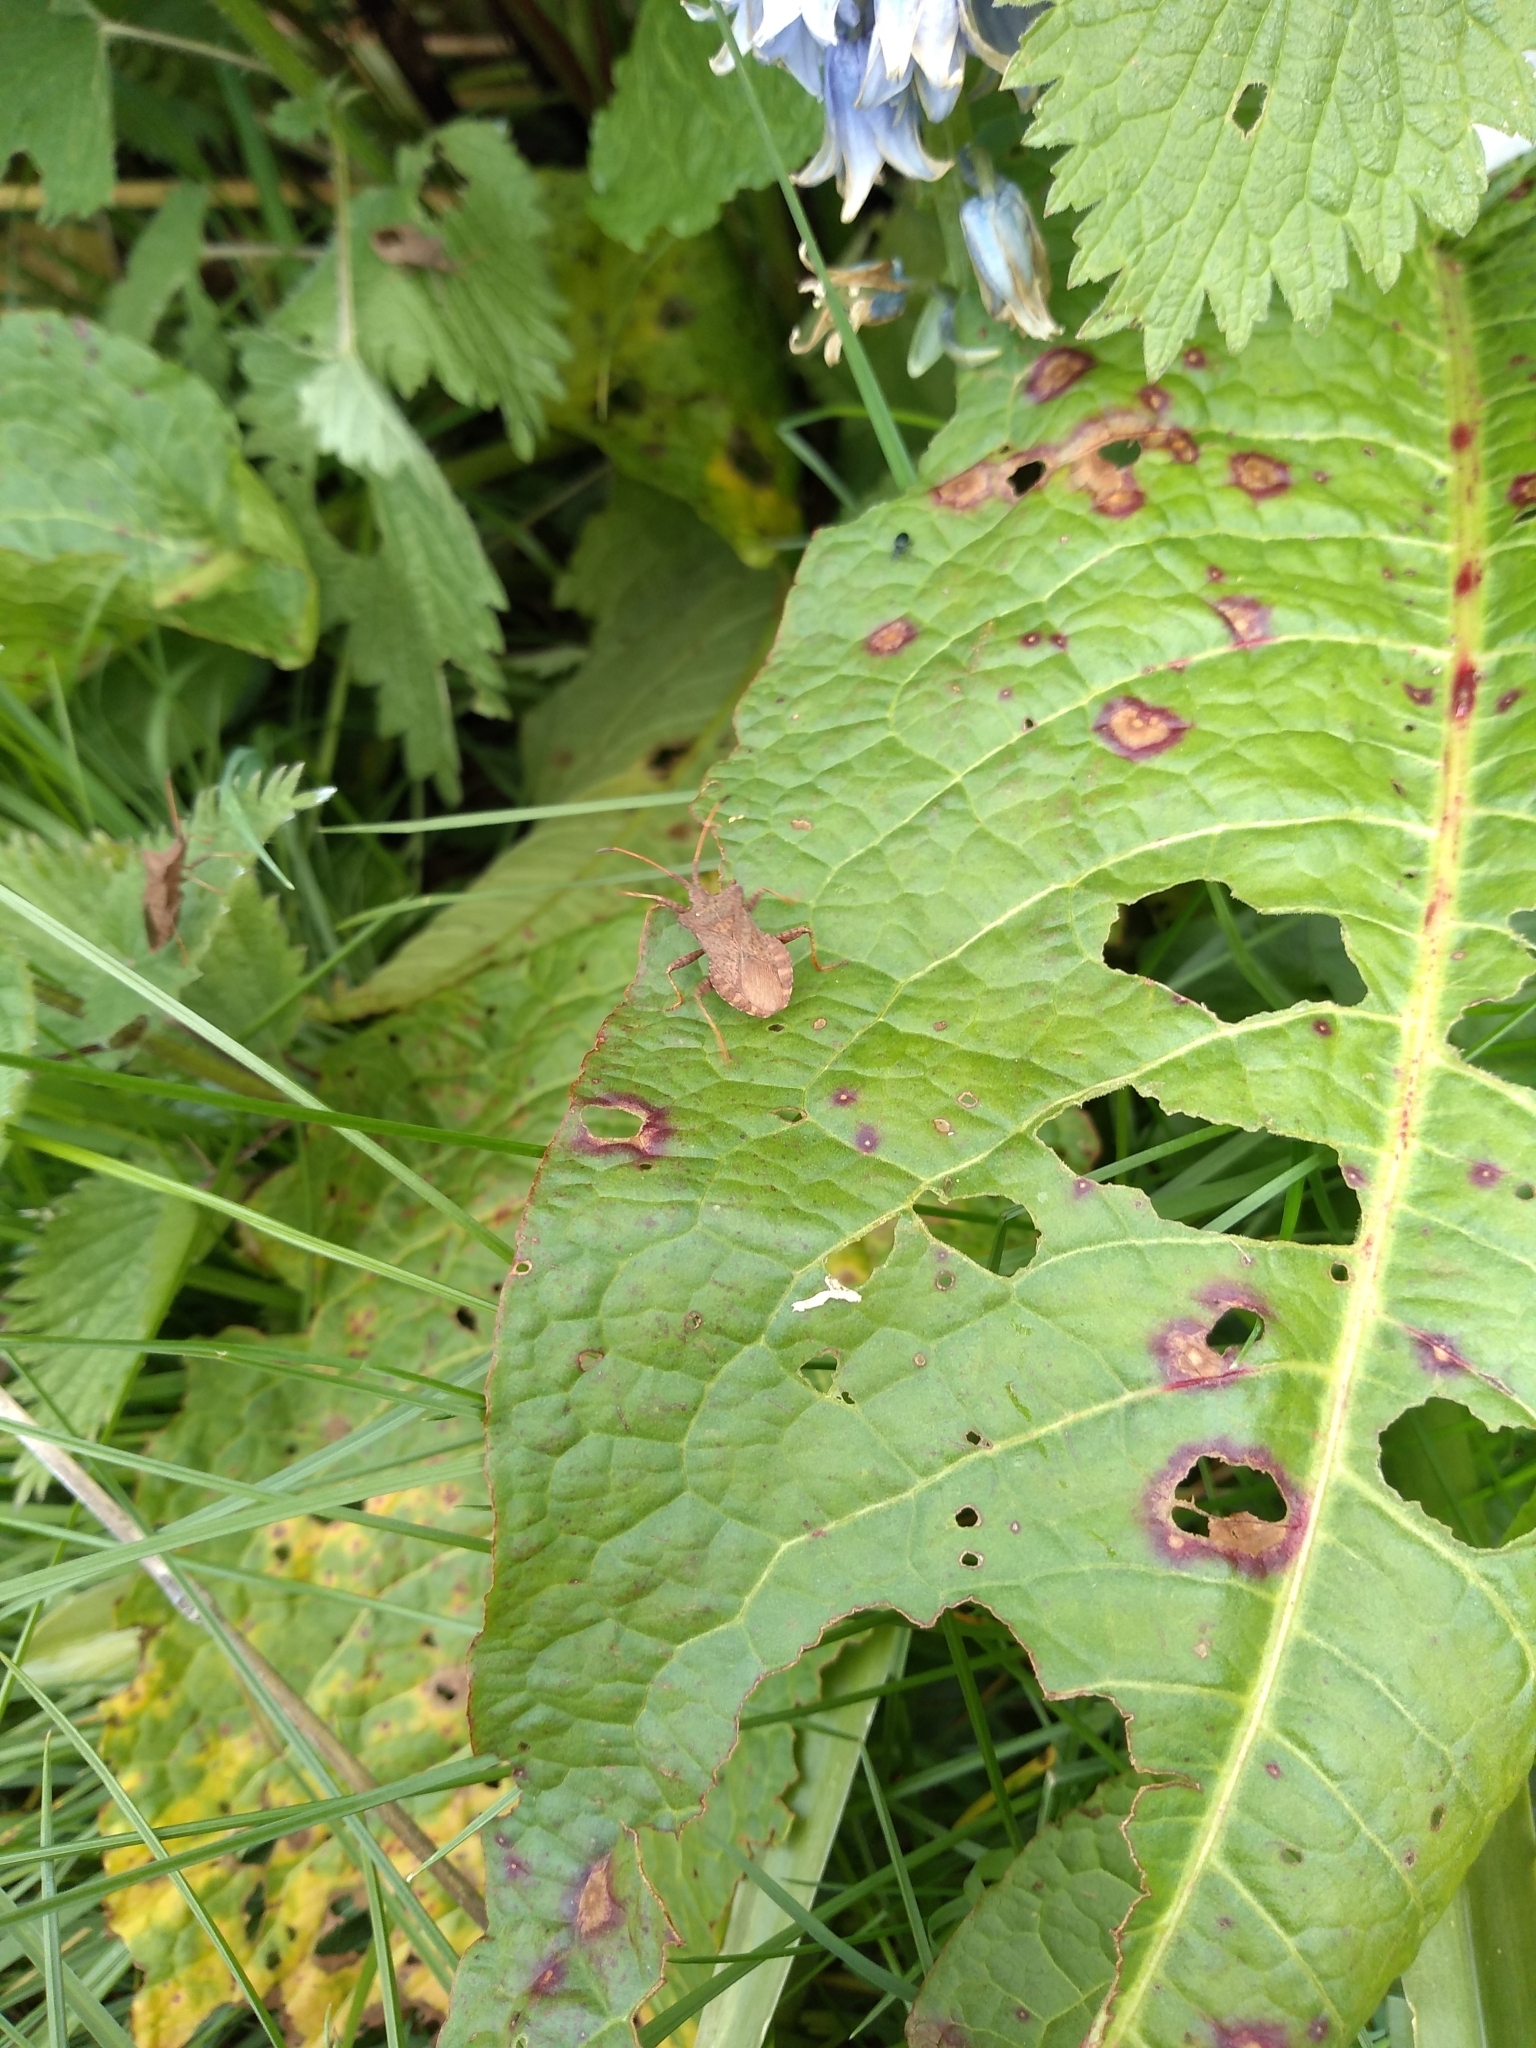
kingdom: Animalia
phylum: Arthropoda
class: Insecta
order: Hemiptera
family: Coreidae
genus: Coreus
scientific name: Coreus marginatus
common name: Dock bug
